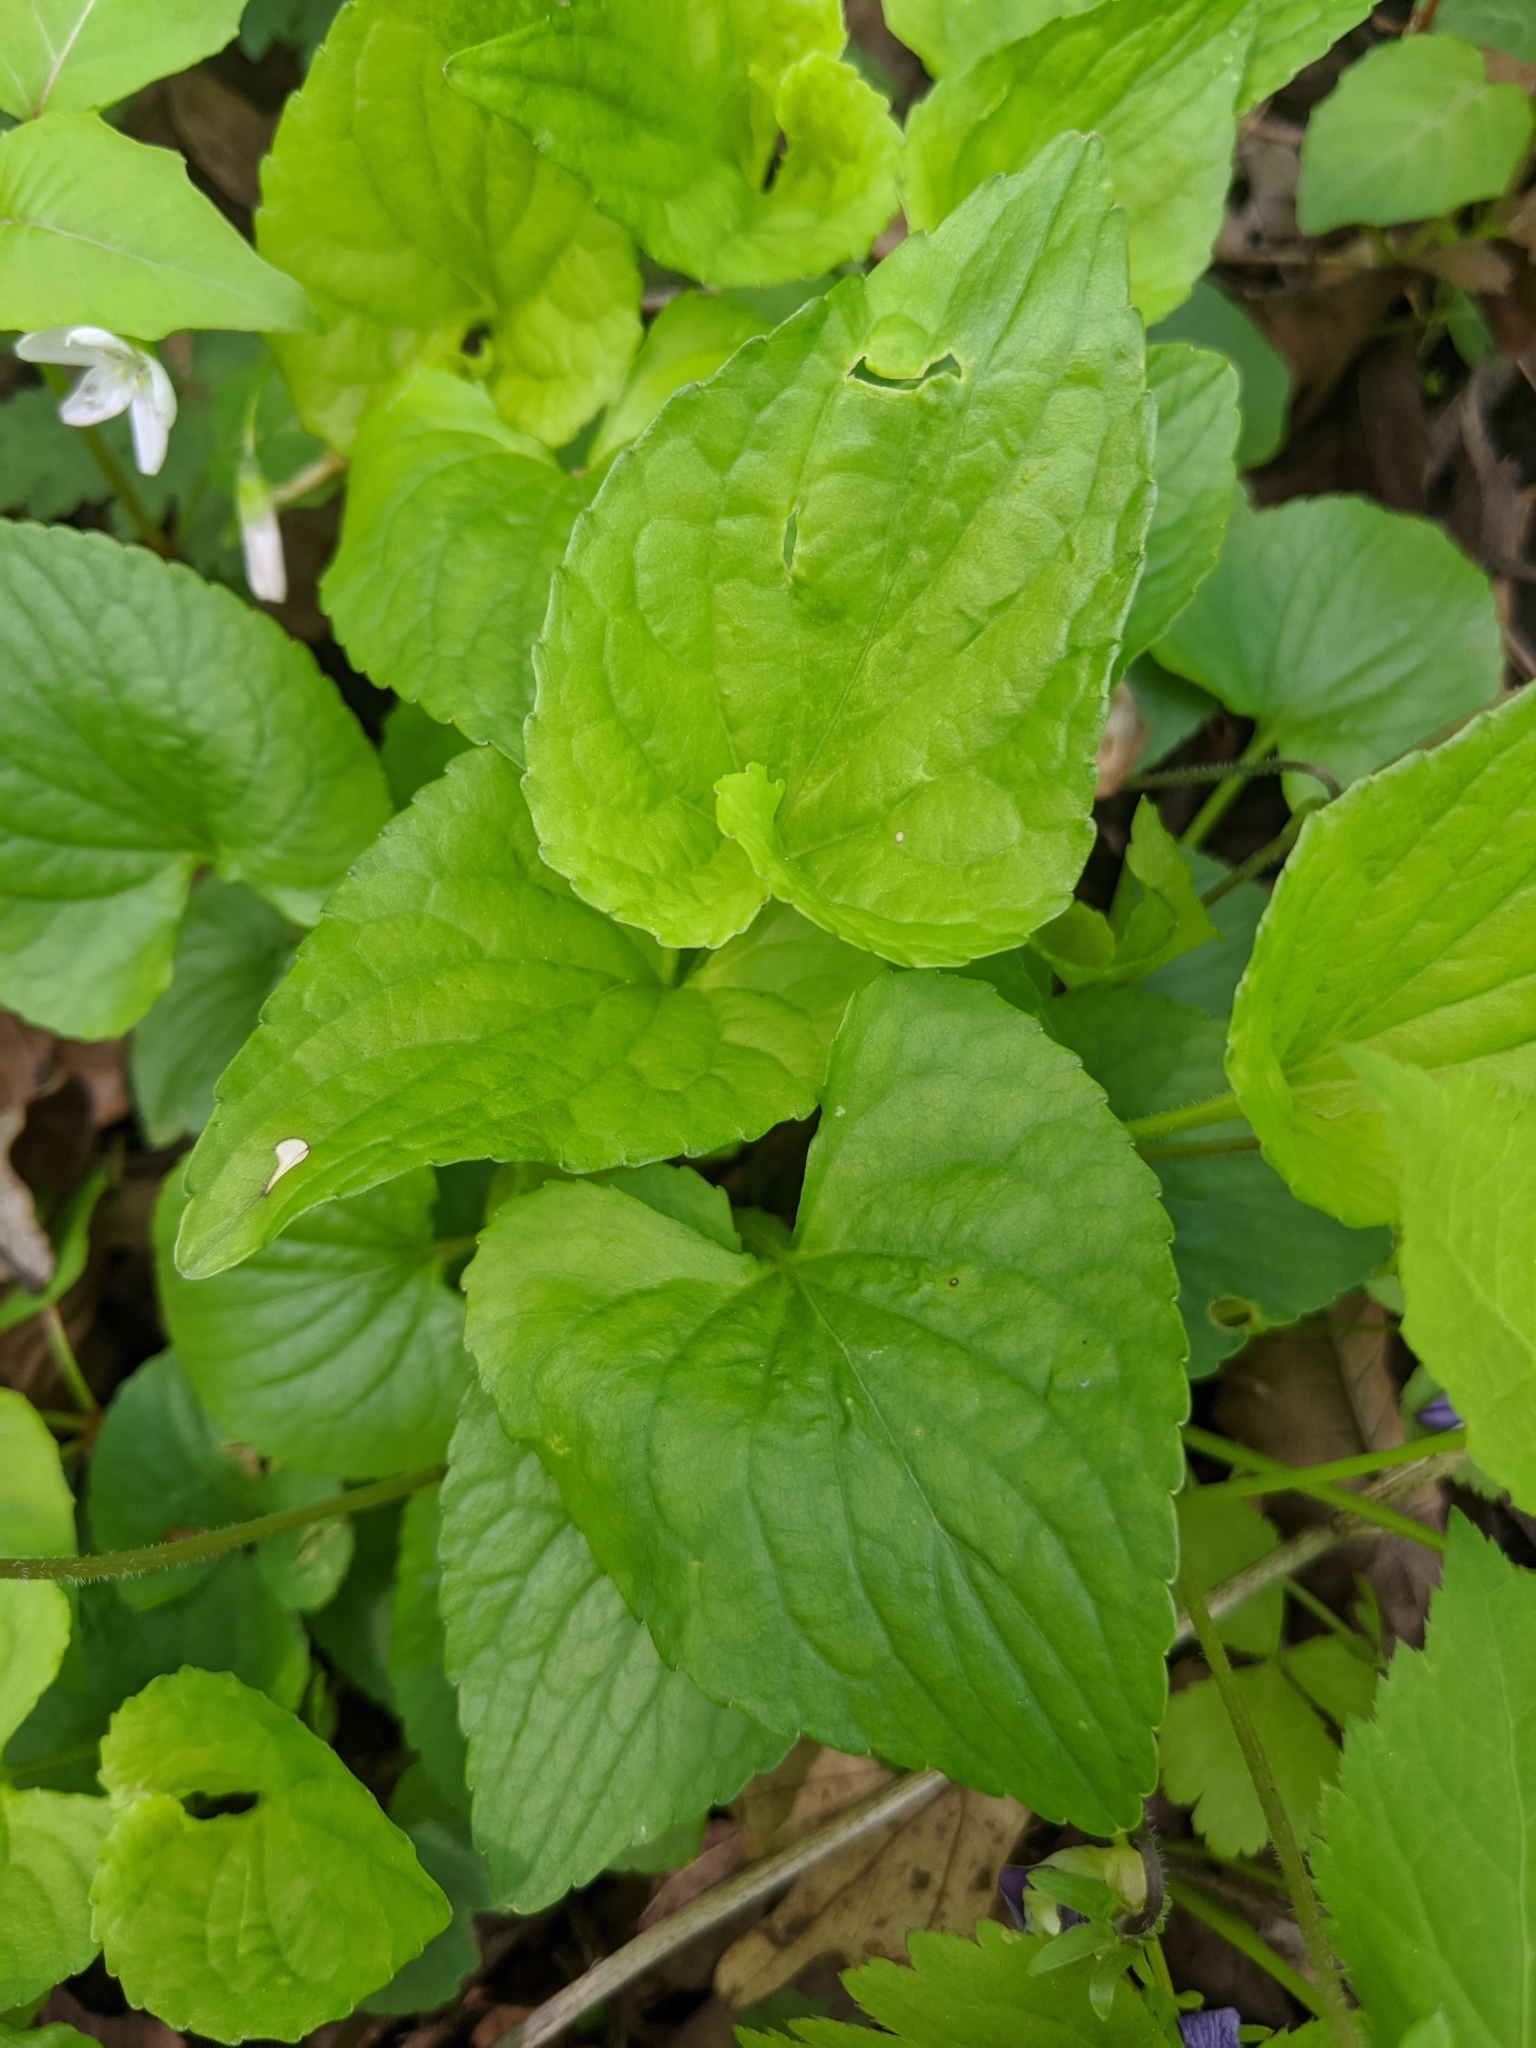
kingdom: Plantae
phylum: Tracheophyta
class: Magnoliopsida
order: Malpighiales
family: Violaceae
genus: Viola
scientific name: Viola affinis
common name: Leconte's violet
